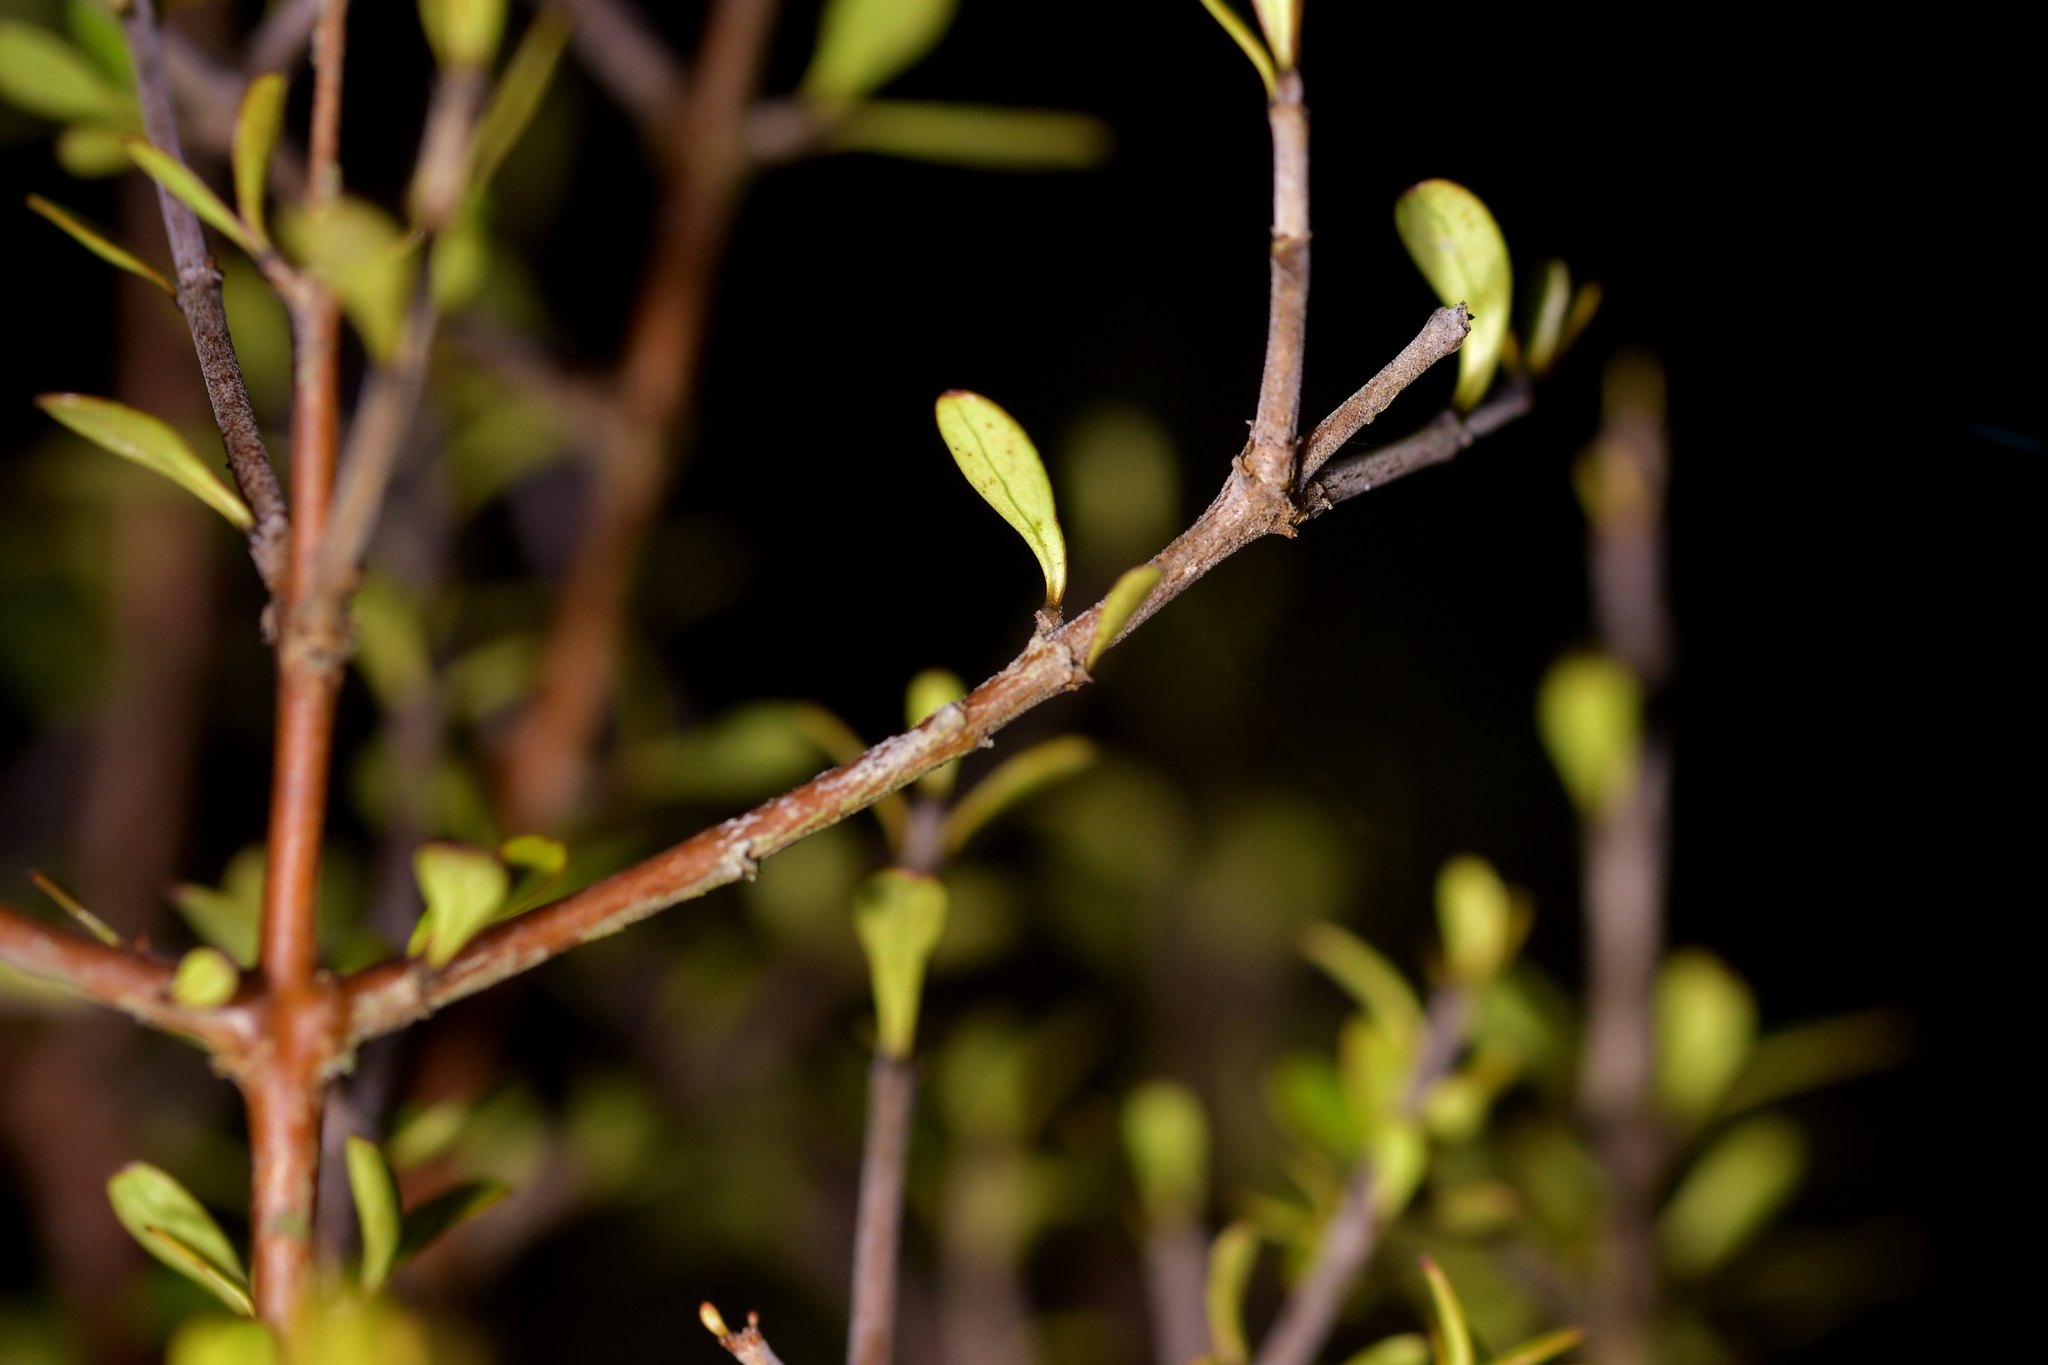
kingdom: Plantae
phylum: Tracheophyta
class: Magnoliopsida
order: Gentianales
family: Rubiaceae
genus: Coprosma
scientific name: Coprosma rigida
